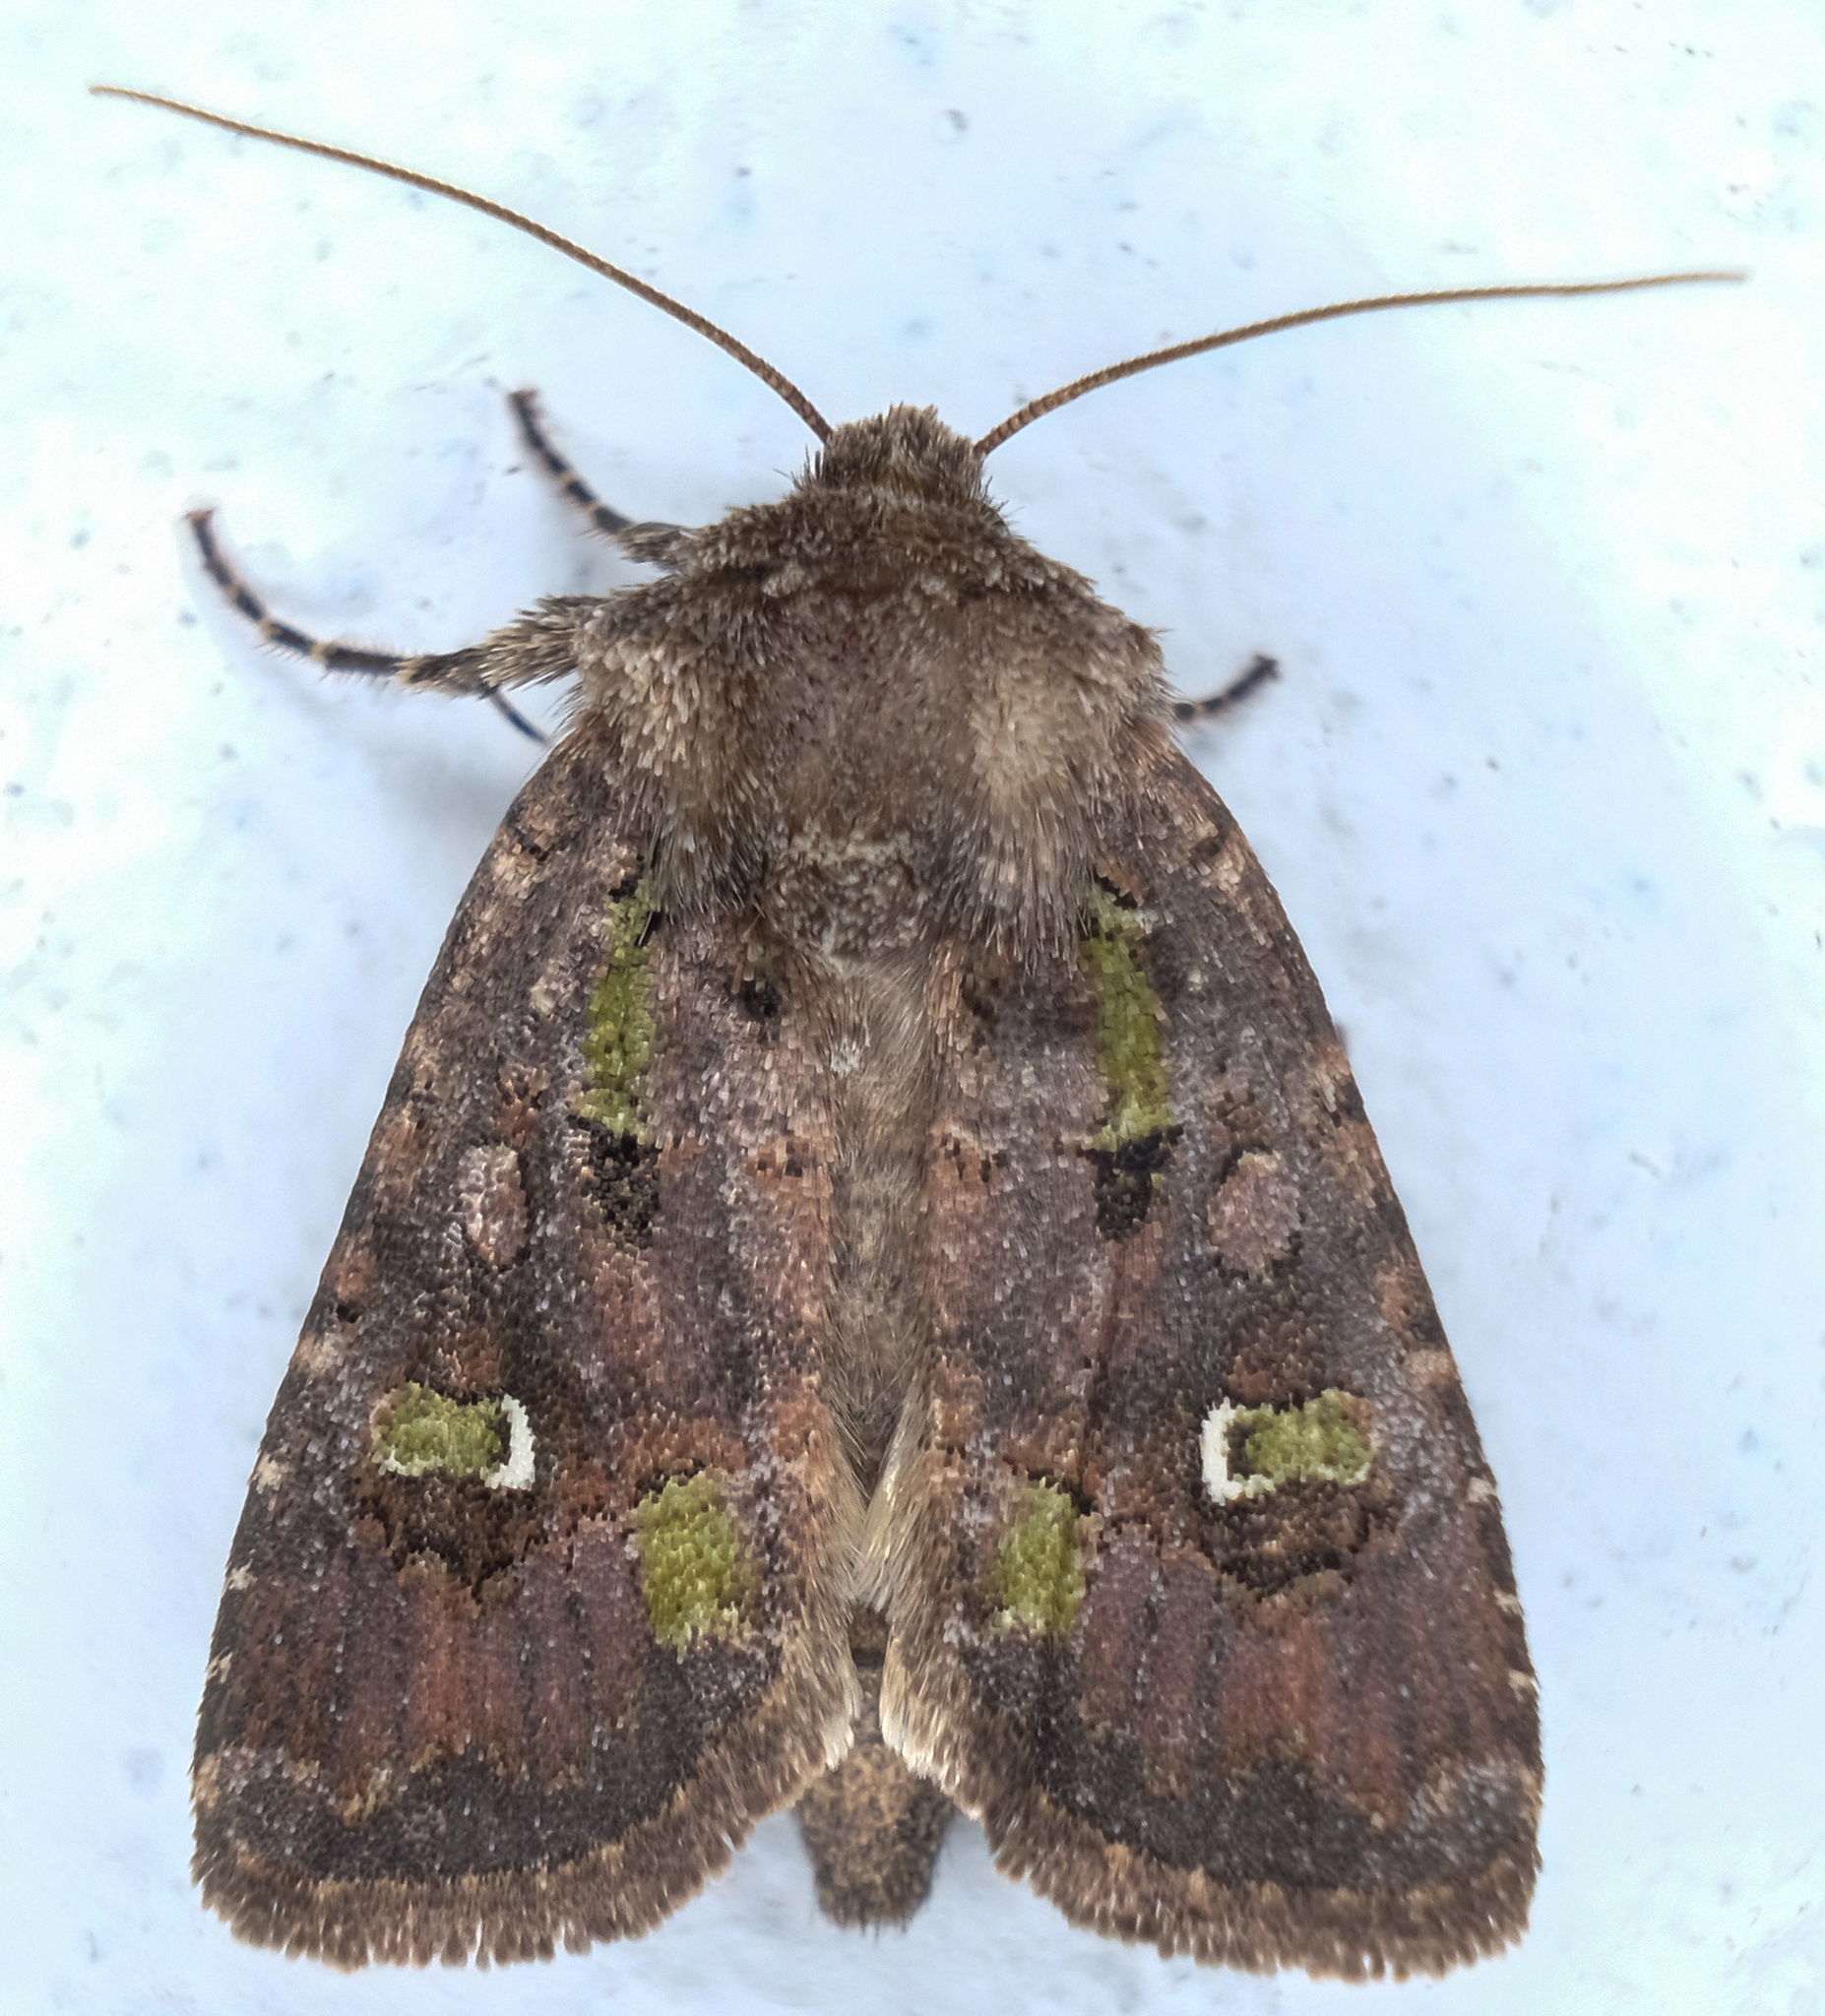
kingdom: Animalia
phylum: Arthropoda
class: Insecta
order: Lepidoptera
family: Noctuidae
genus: Lacinipolia
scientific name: Lacinipolia renigera
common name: Kidney-spotted minor
